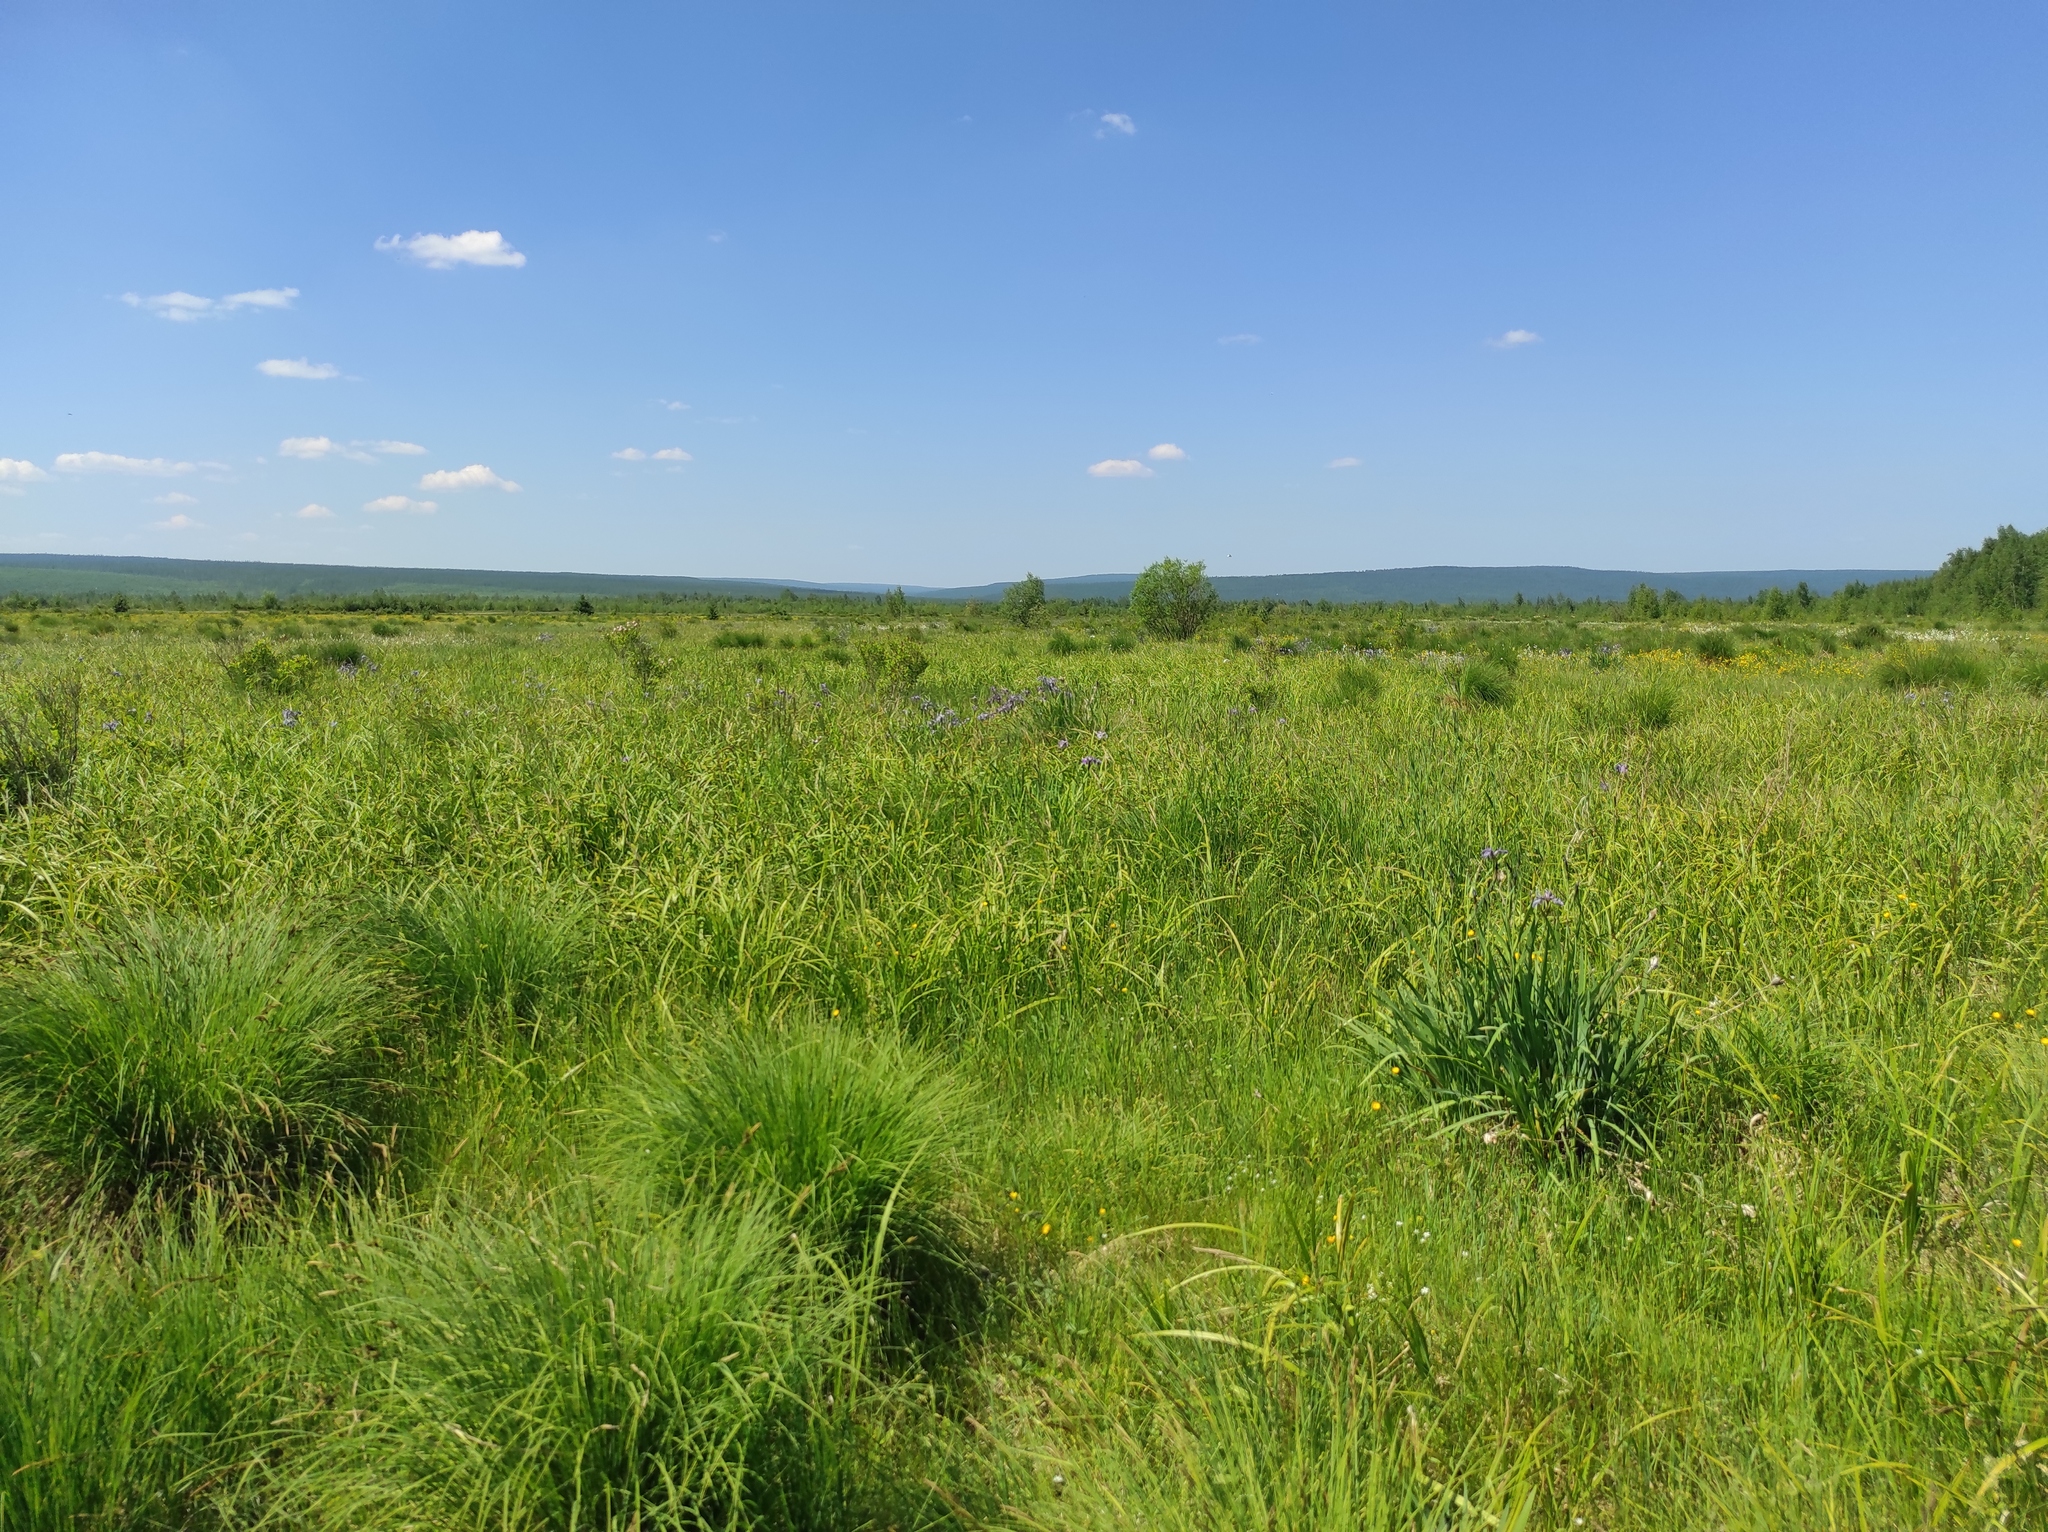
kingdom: Plantae
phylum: Tracheophyta
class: Liliopsida
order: Asparagales
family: Iridaceae
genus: Iris
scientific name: Iris setosa
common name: Arctic blue flag
